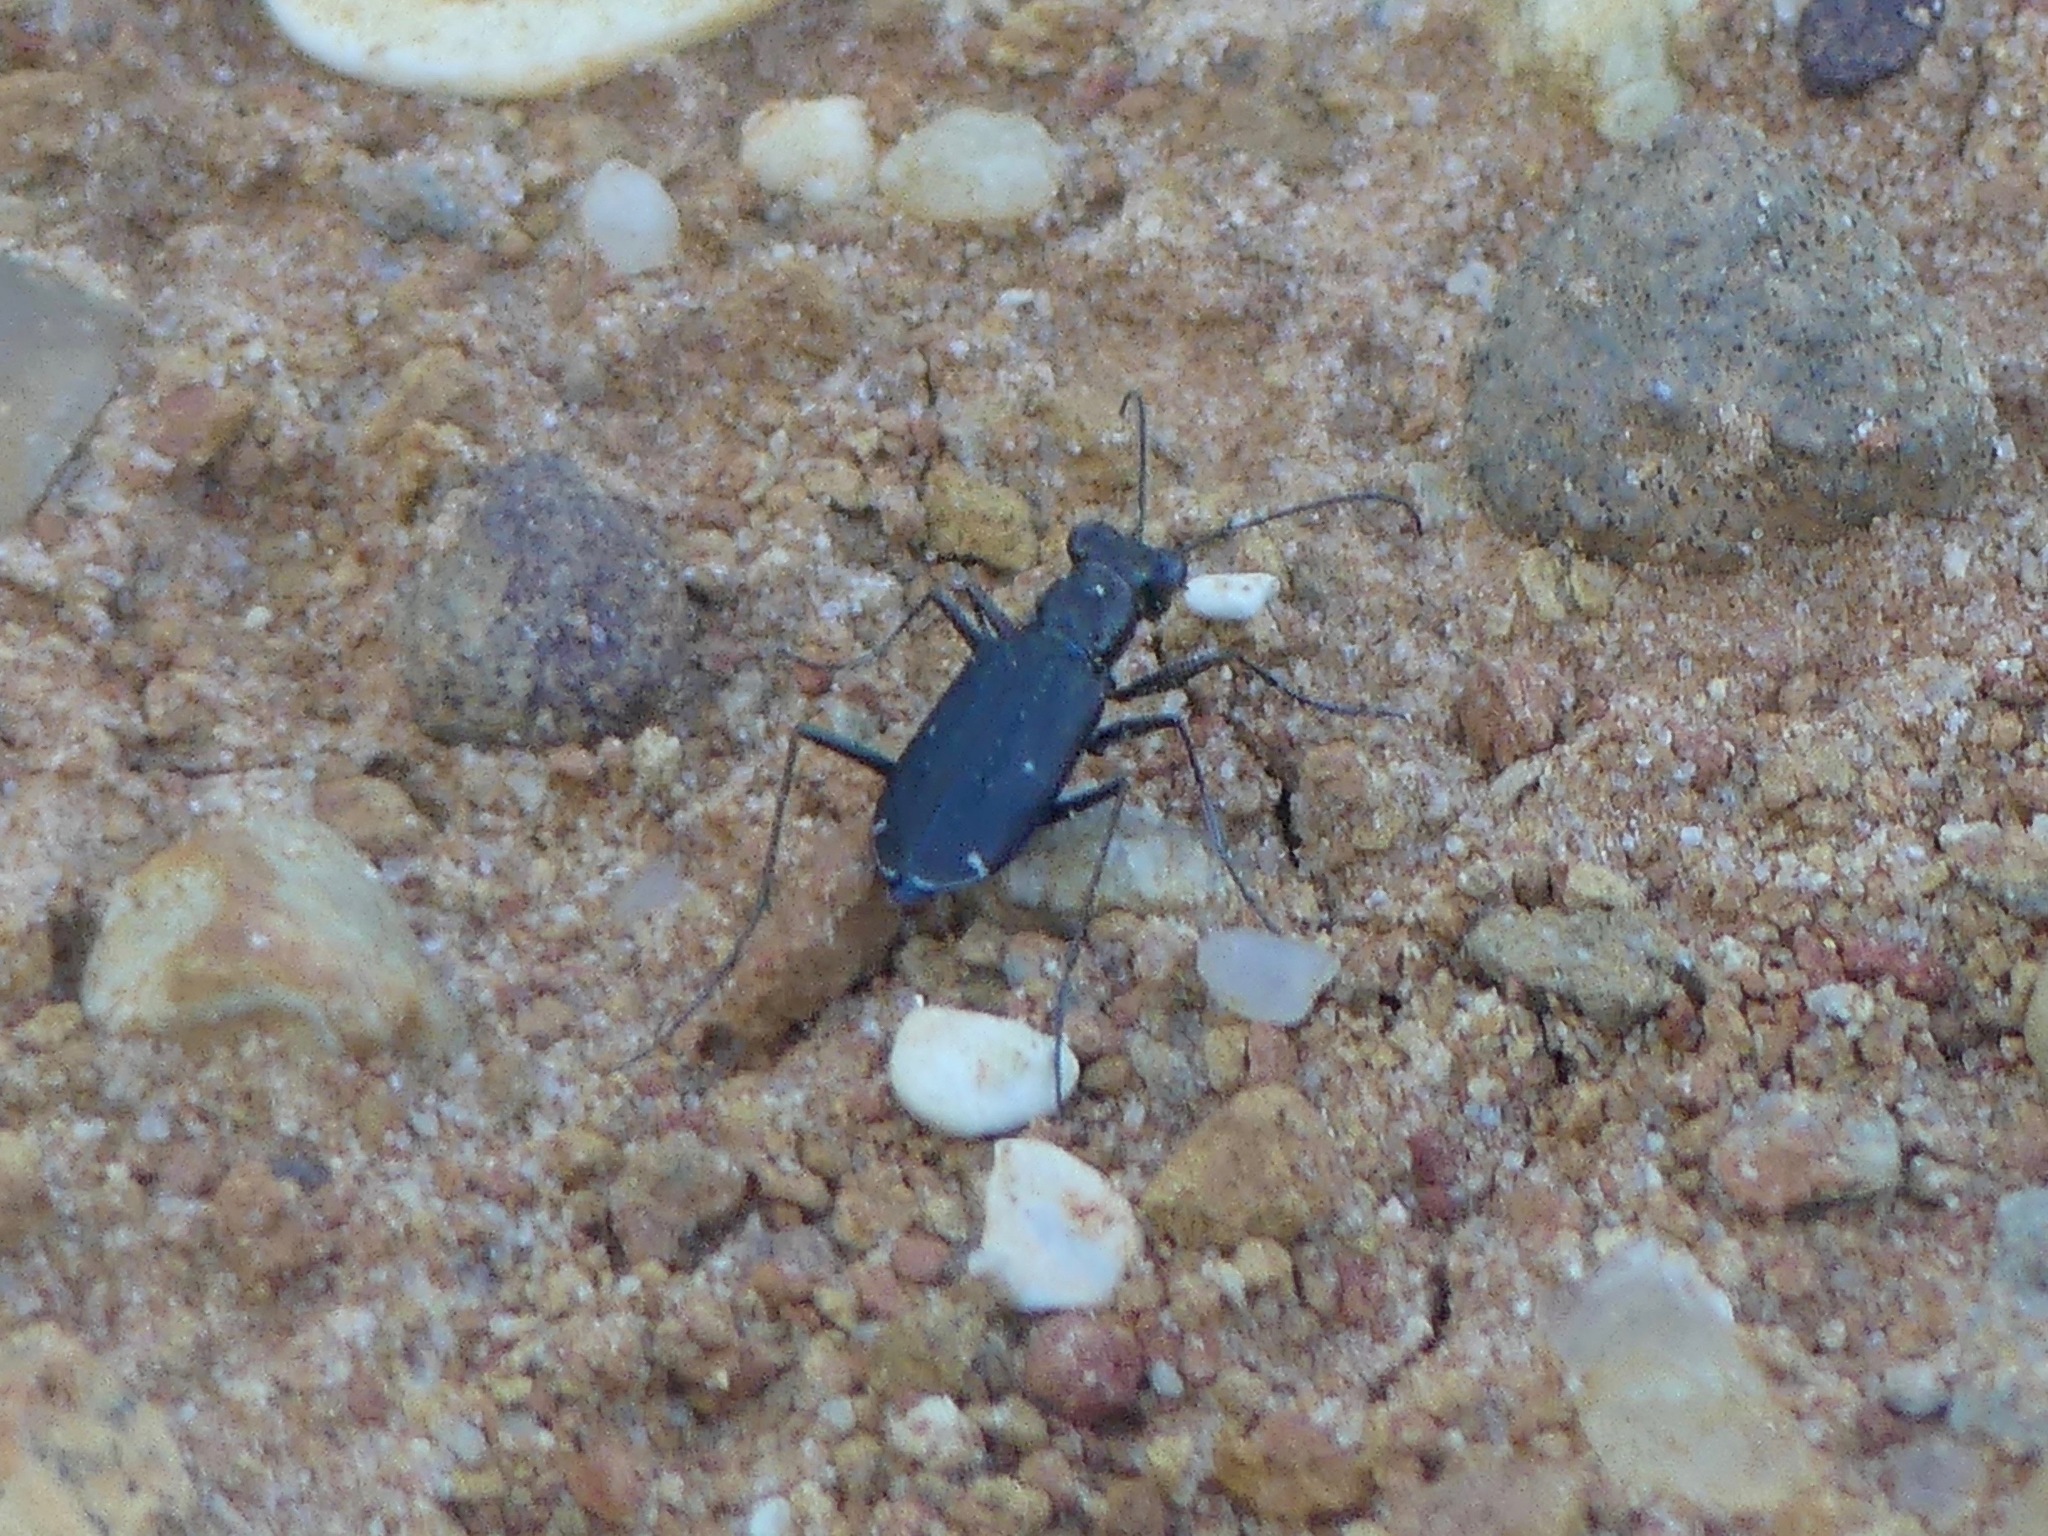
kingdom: Animalia
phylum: Arthropoda
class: Insecta
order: Coleoptera
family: Carabidae
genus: Cicindela
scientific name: Cicindela punctulata
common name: Punctured tiger beetle
